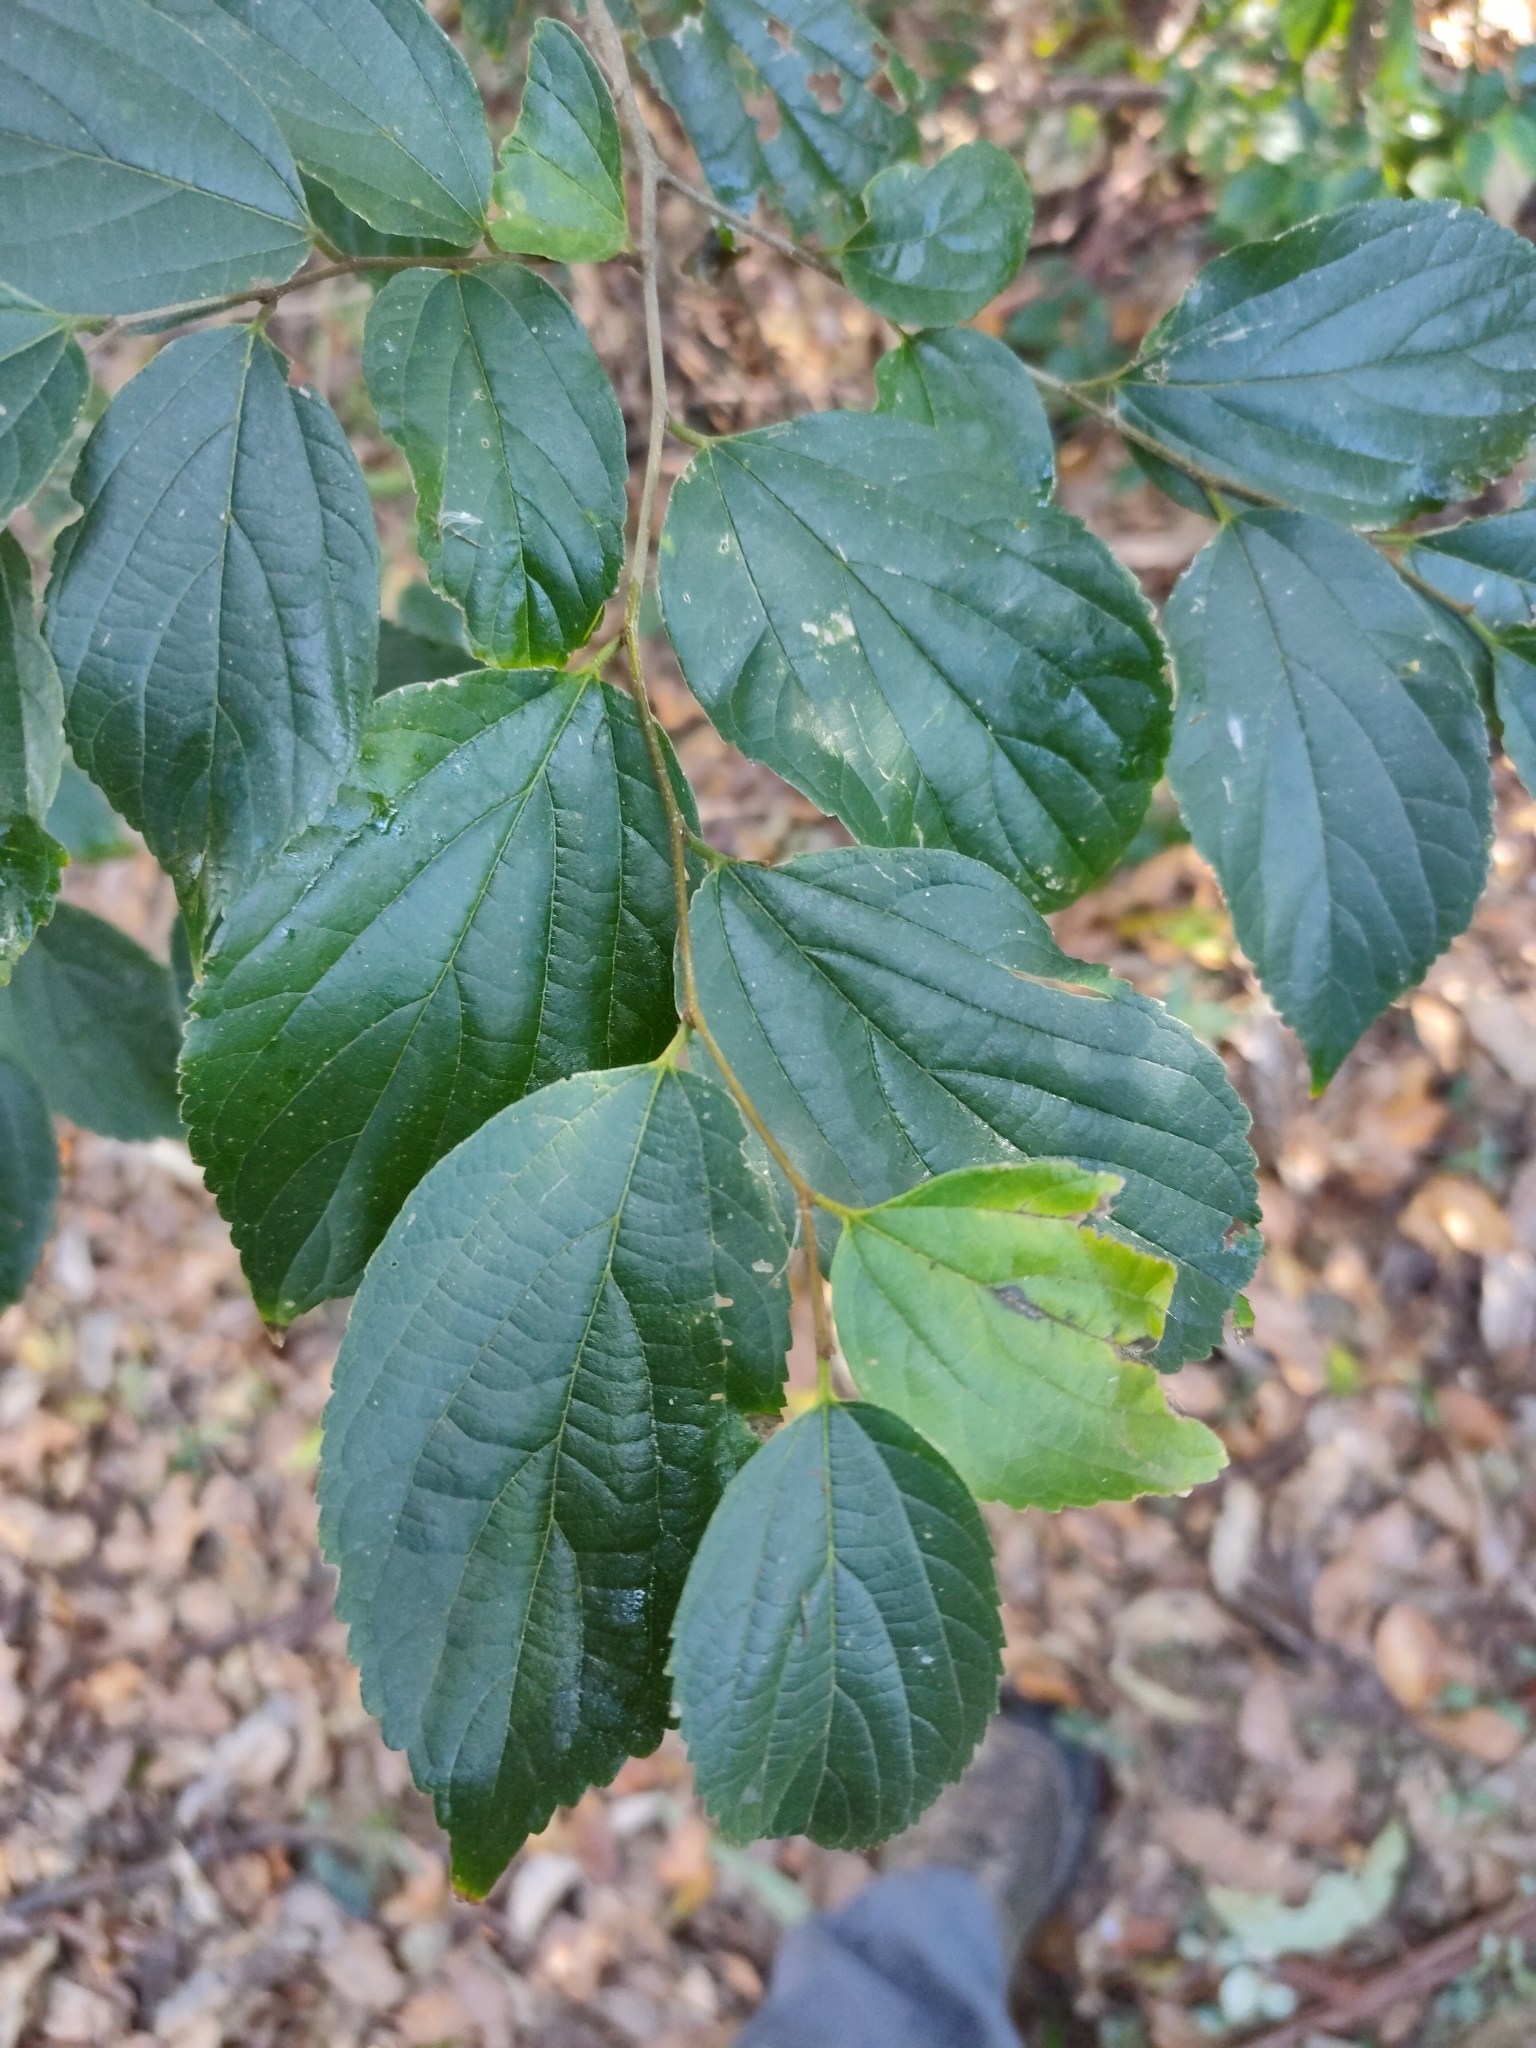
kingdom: Plantae
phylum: Tracheophyta
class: Magnoliopsida
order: Rosales
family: Cannabaceae
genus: Celtis
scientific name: Celtis sinensis
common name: Chinese hackberry
